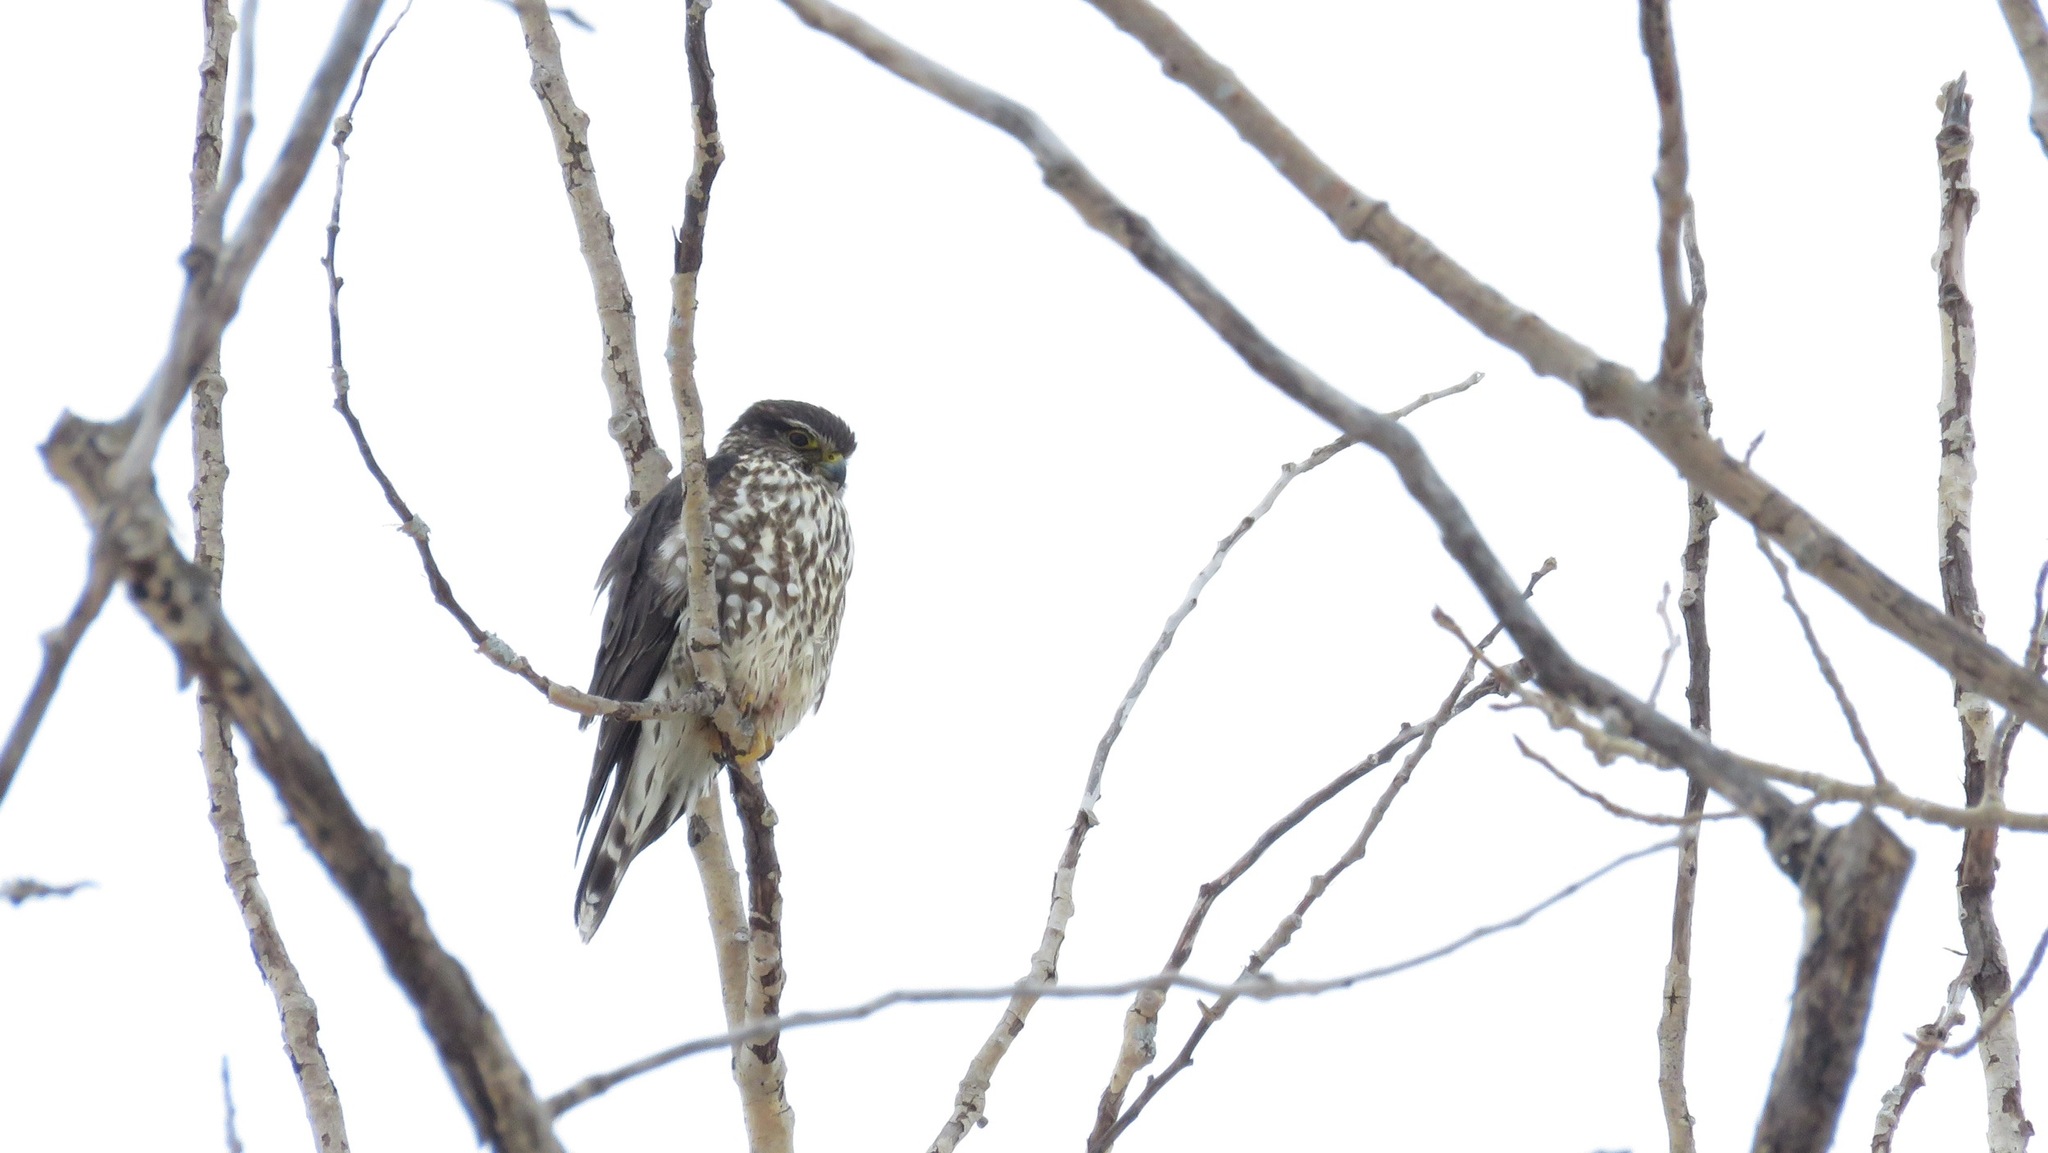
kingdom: Animalia
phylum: Chordata
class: Aves
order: Falconiformes
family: Falconidae
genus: Falco
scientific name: Falco columbarius
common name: Merlin
